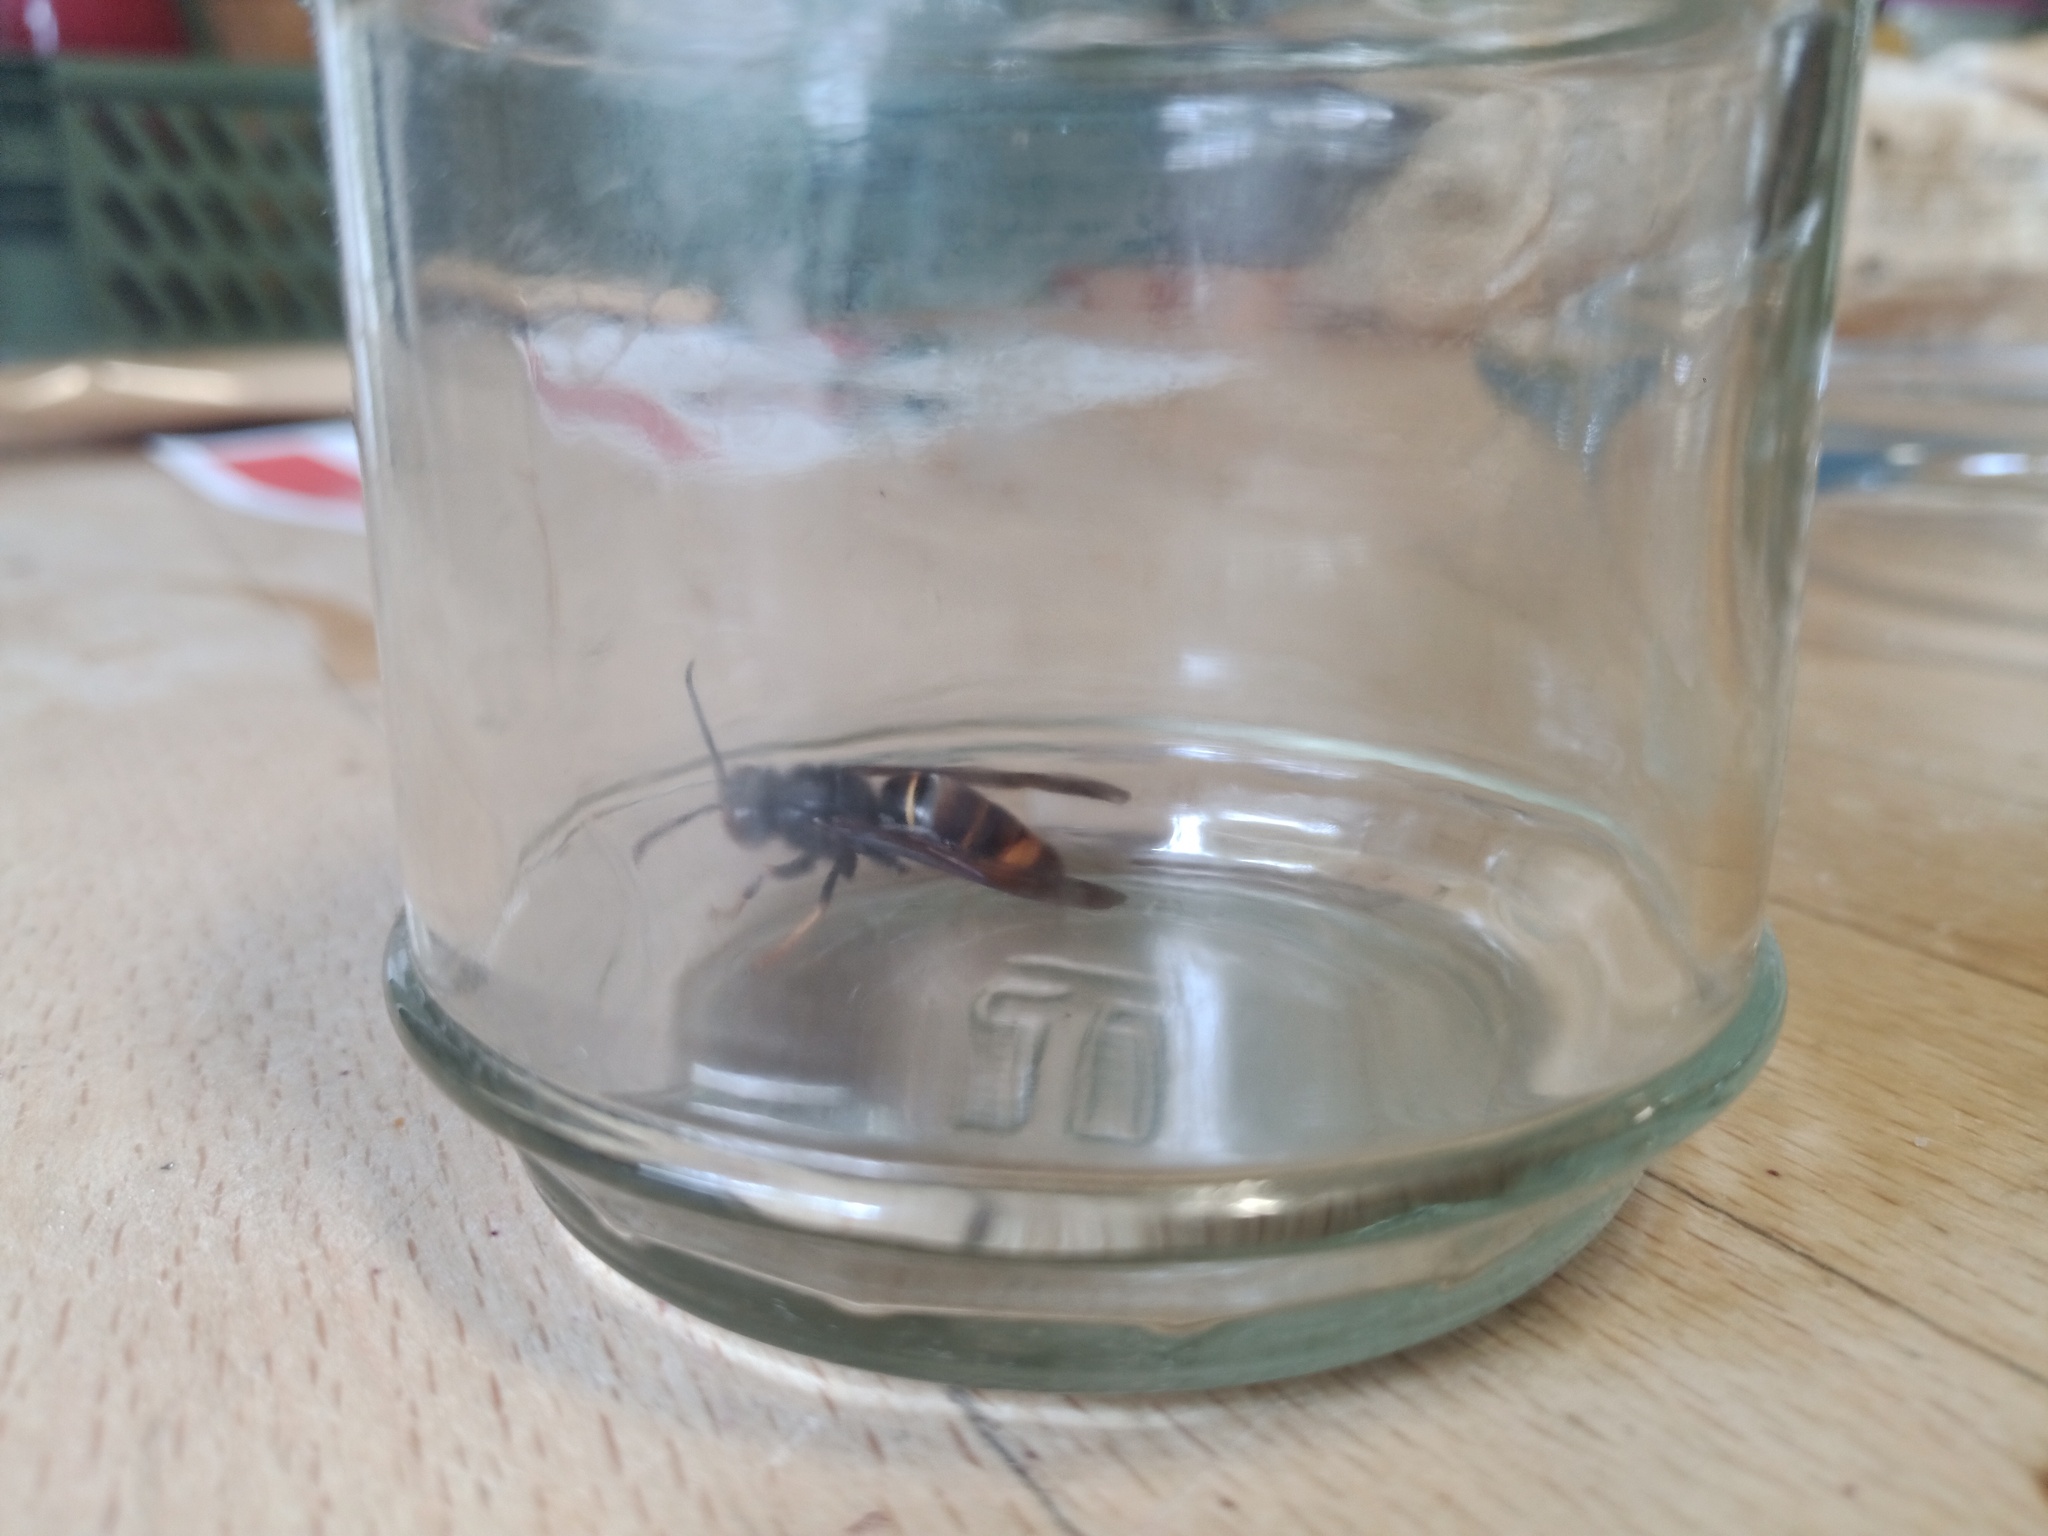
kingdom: Animalia
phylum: Arthropoda
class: Insecta
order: Hymenoptera
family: Vespidae
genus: Vespa
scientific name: Vespa velutina
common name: Asian hornet
